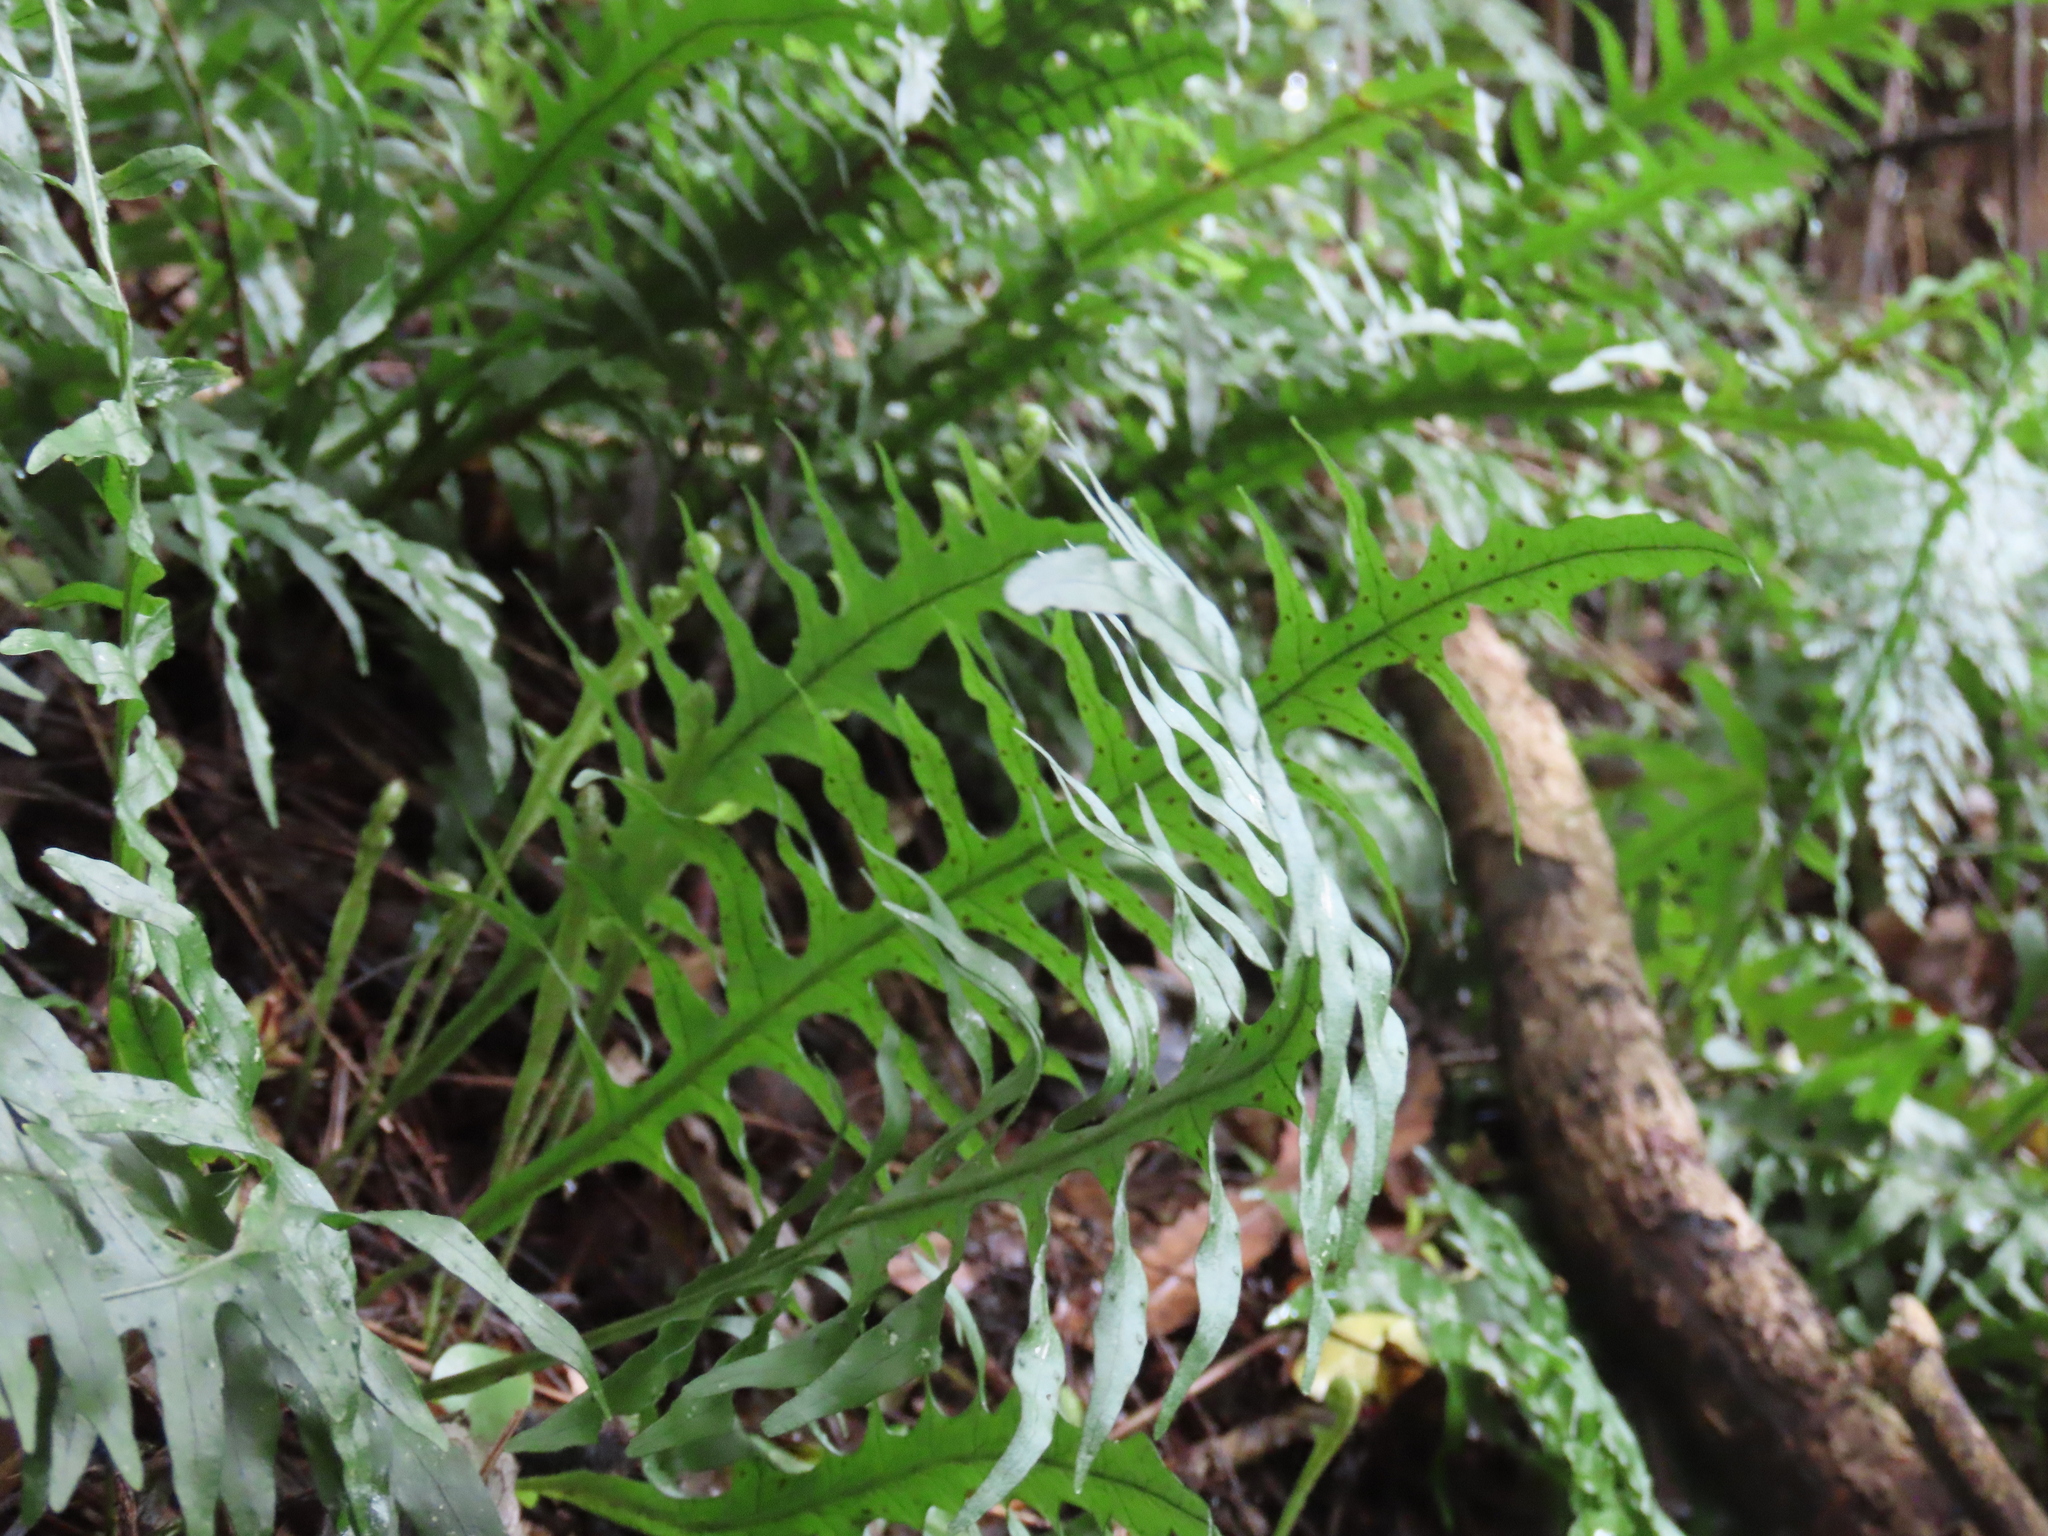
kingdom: Plantae
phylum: Tracheophyta
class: Polypodiopsida
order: Polypodiales
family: Polypodiaceae
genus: Lecanopteris
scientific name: Lecanopteris scandens
